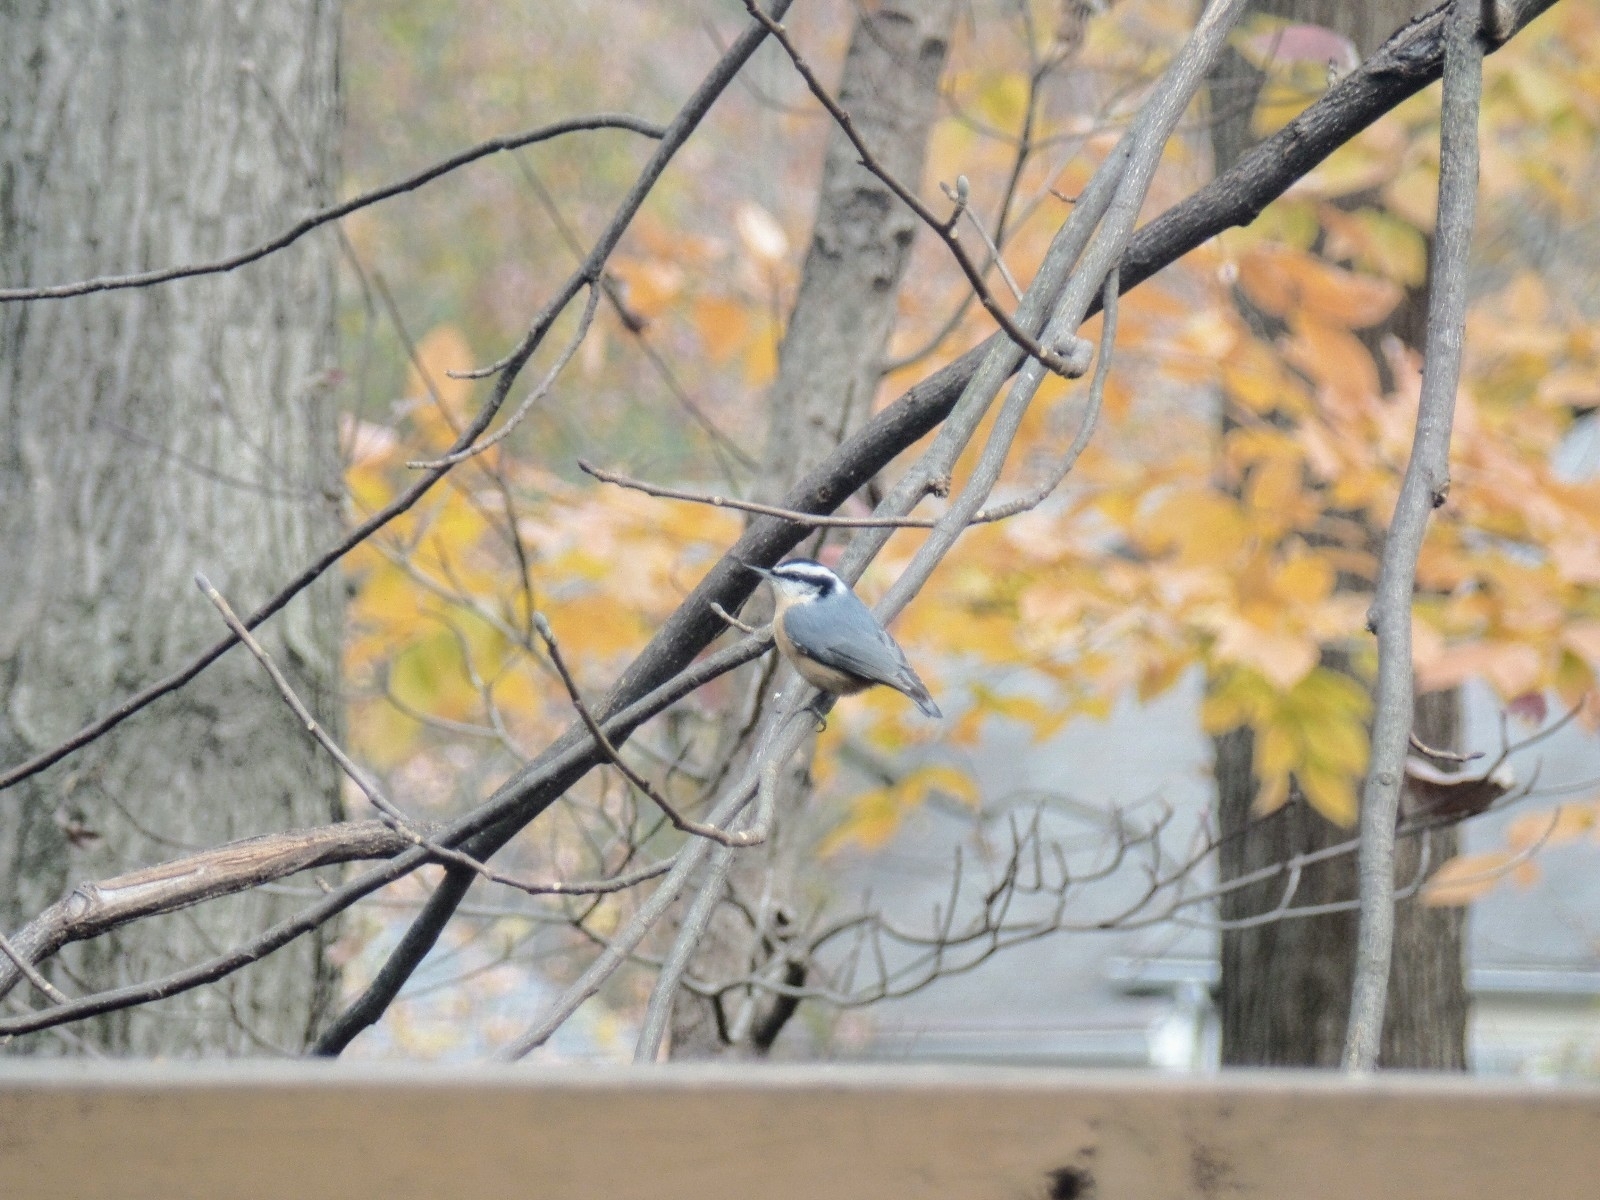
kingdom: Animalia
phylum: Chordata
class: Aves
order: Passeriformes
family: Sittidae
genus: Sitta
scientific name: Sitta canadensis
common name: Red-breasted nuthatch
